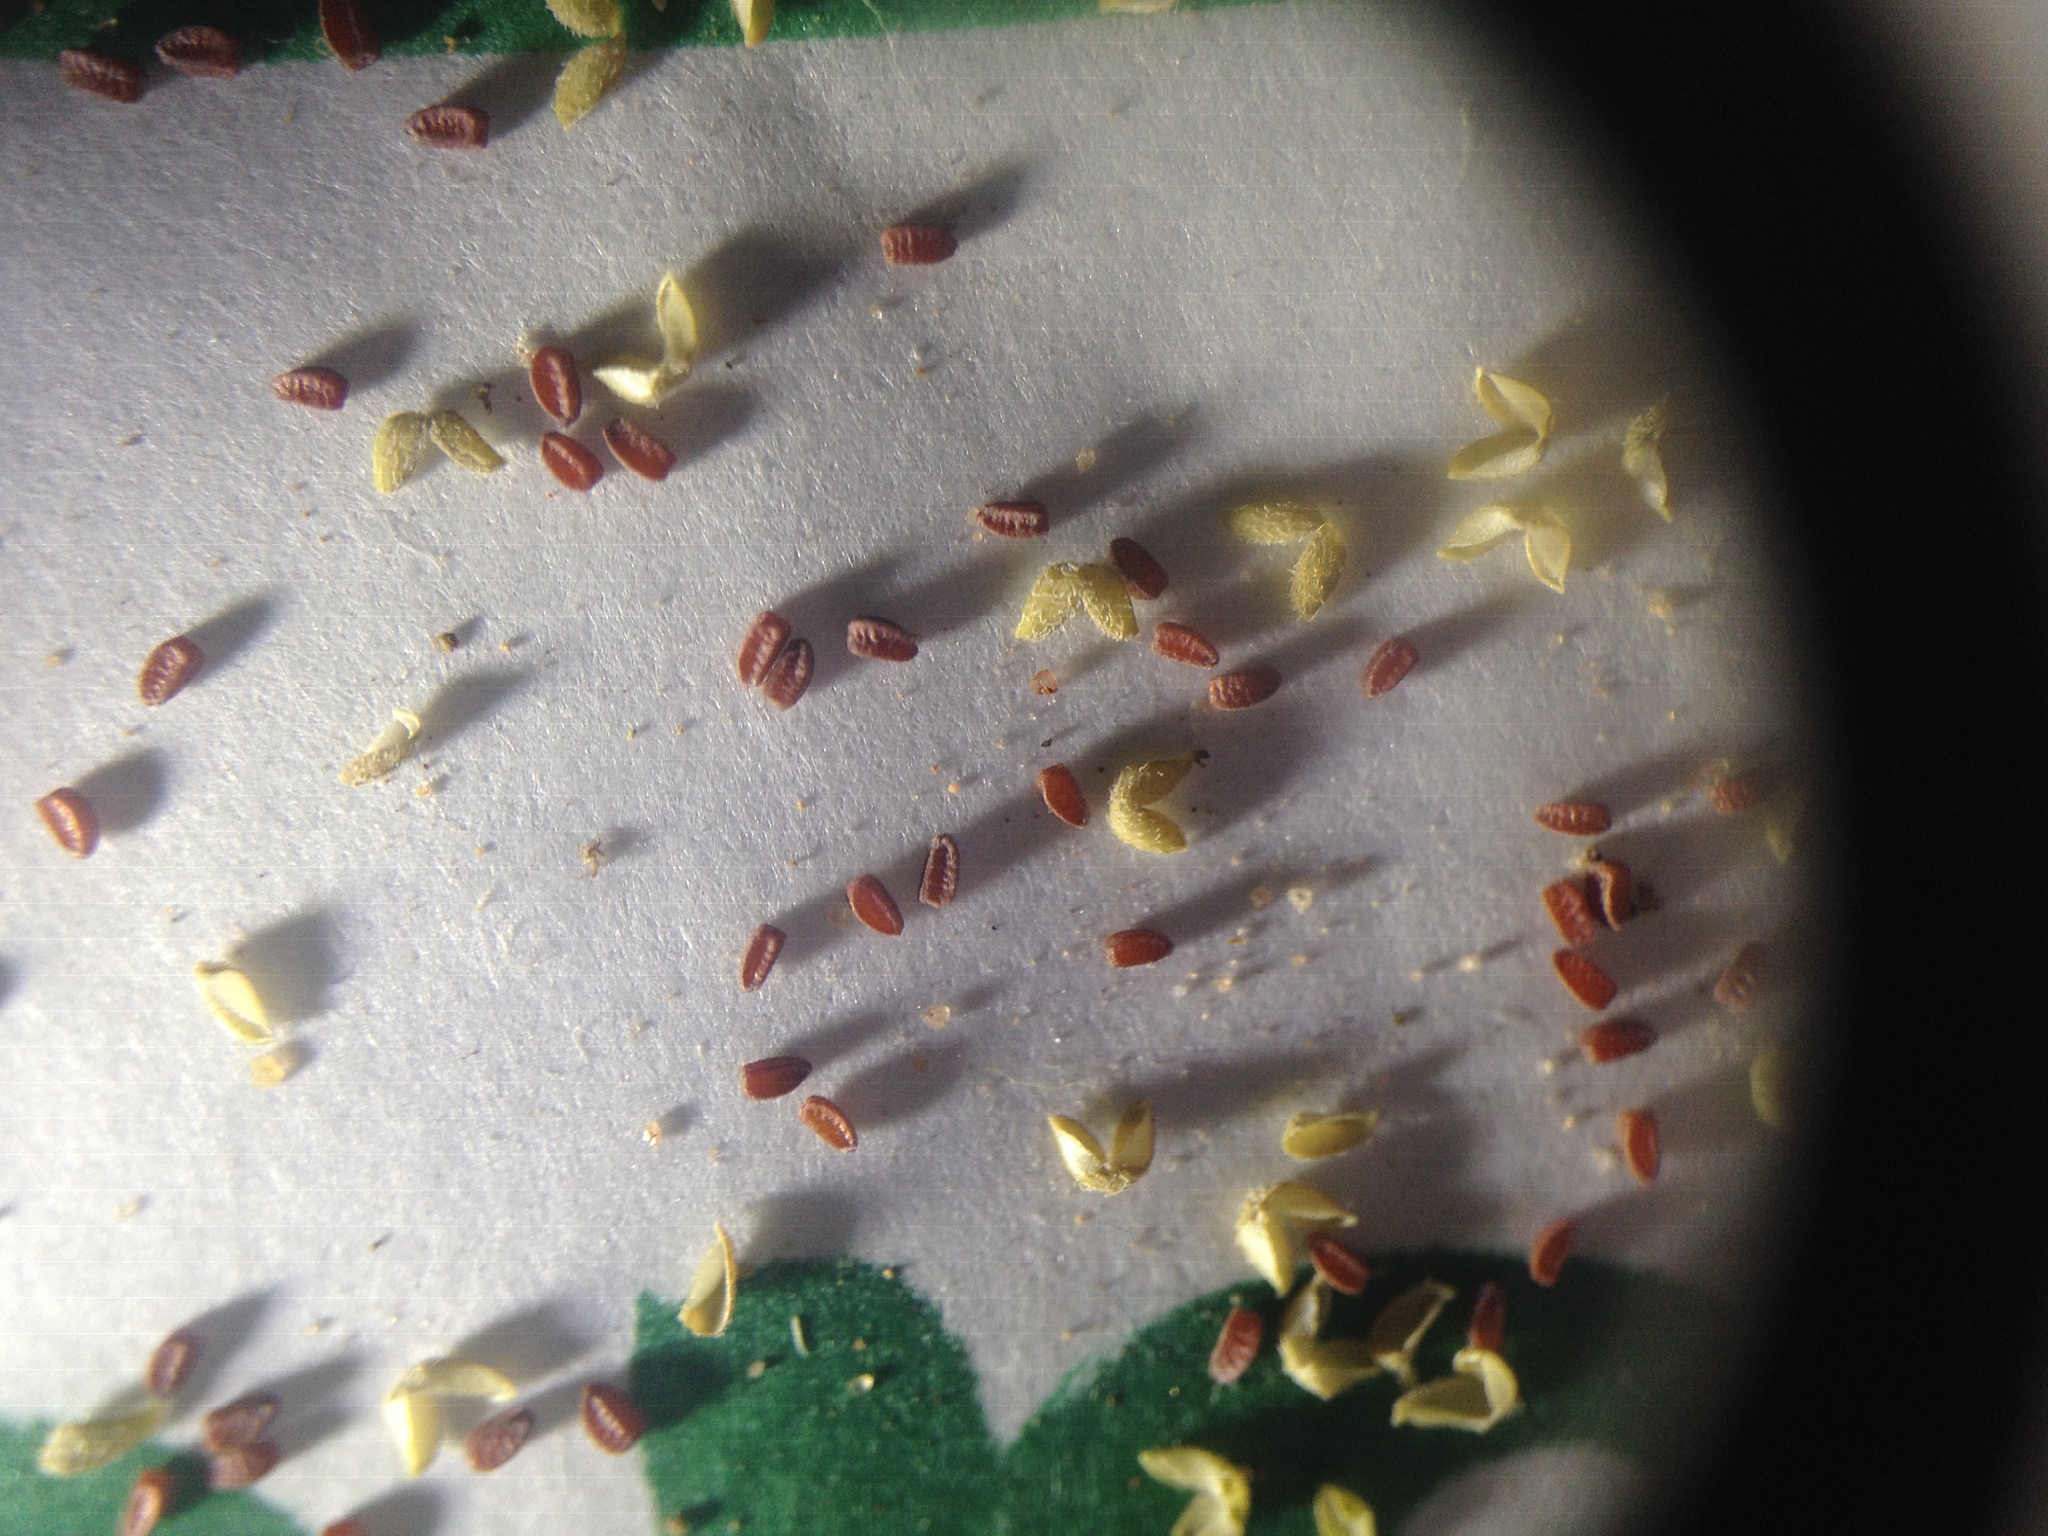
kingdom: Plantae
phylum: Tracheophyta
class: Magnoliopsida
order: Malpighiales
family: Euphorbiaceae
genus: Euphorbia
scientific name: Euphorbia ophthalmica
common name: Florida hammock sandmat
